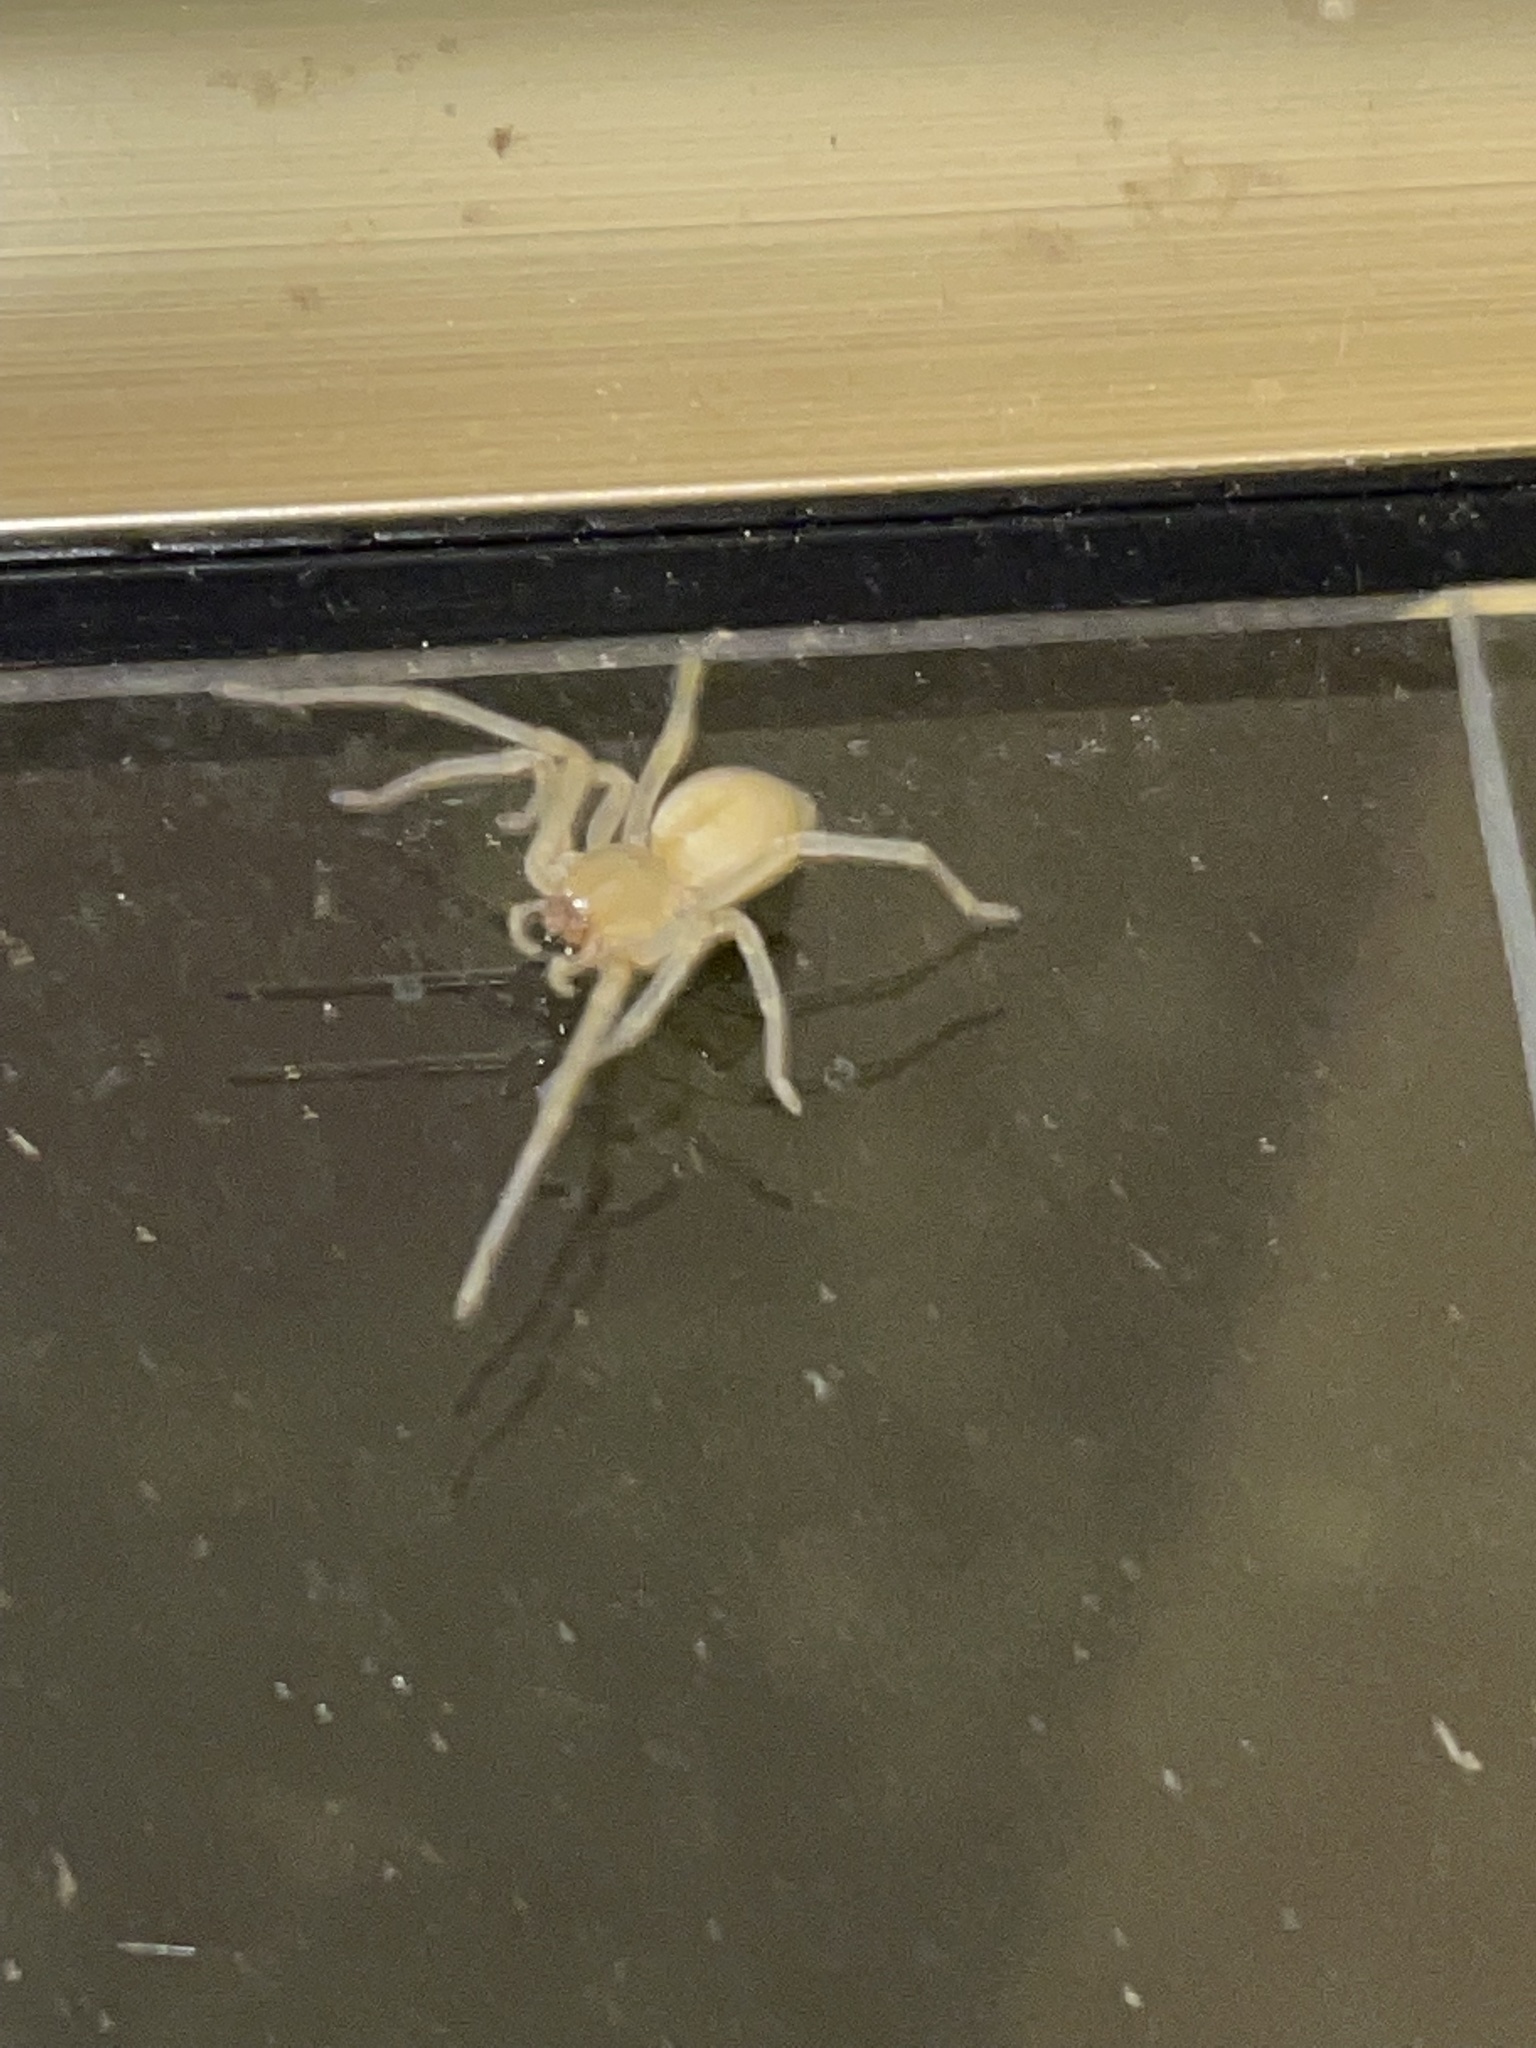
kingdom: Animalia
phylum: Arthropoda
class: Arachnida
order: Araneae
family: Cheiracanthiidae
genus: Cheiracanthium
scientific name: Cheiracanthium mildei
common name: Northern yellow sac spider
